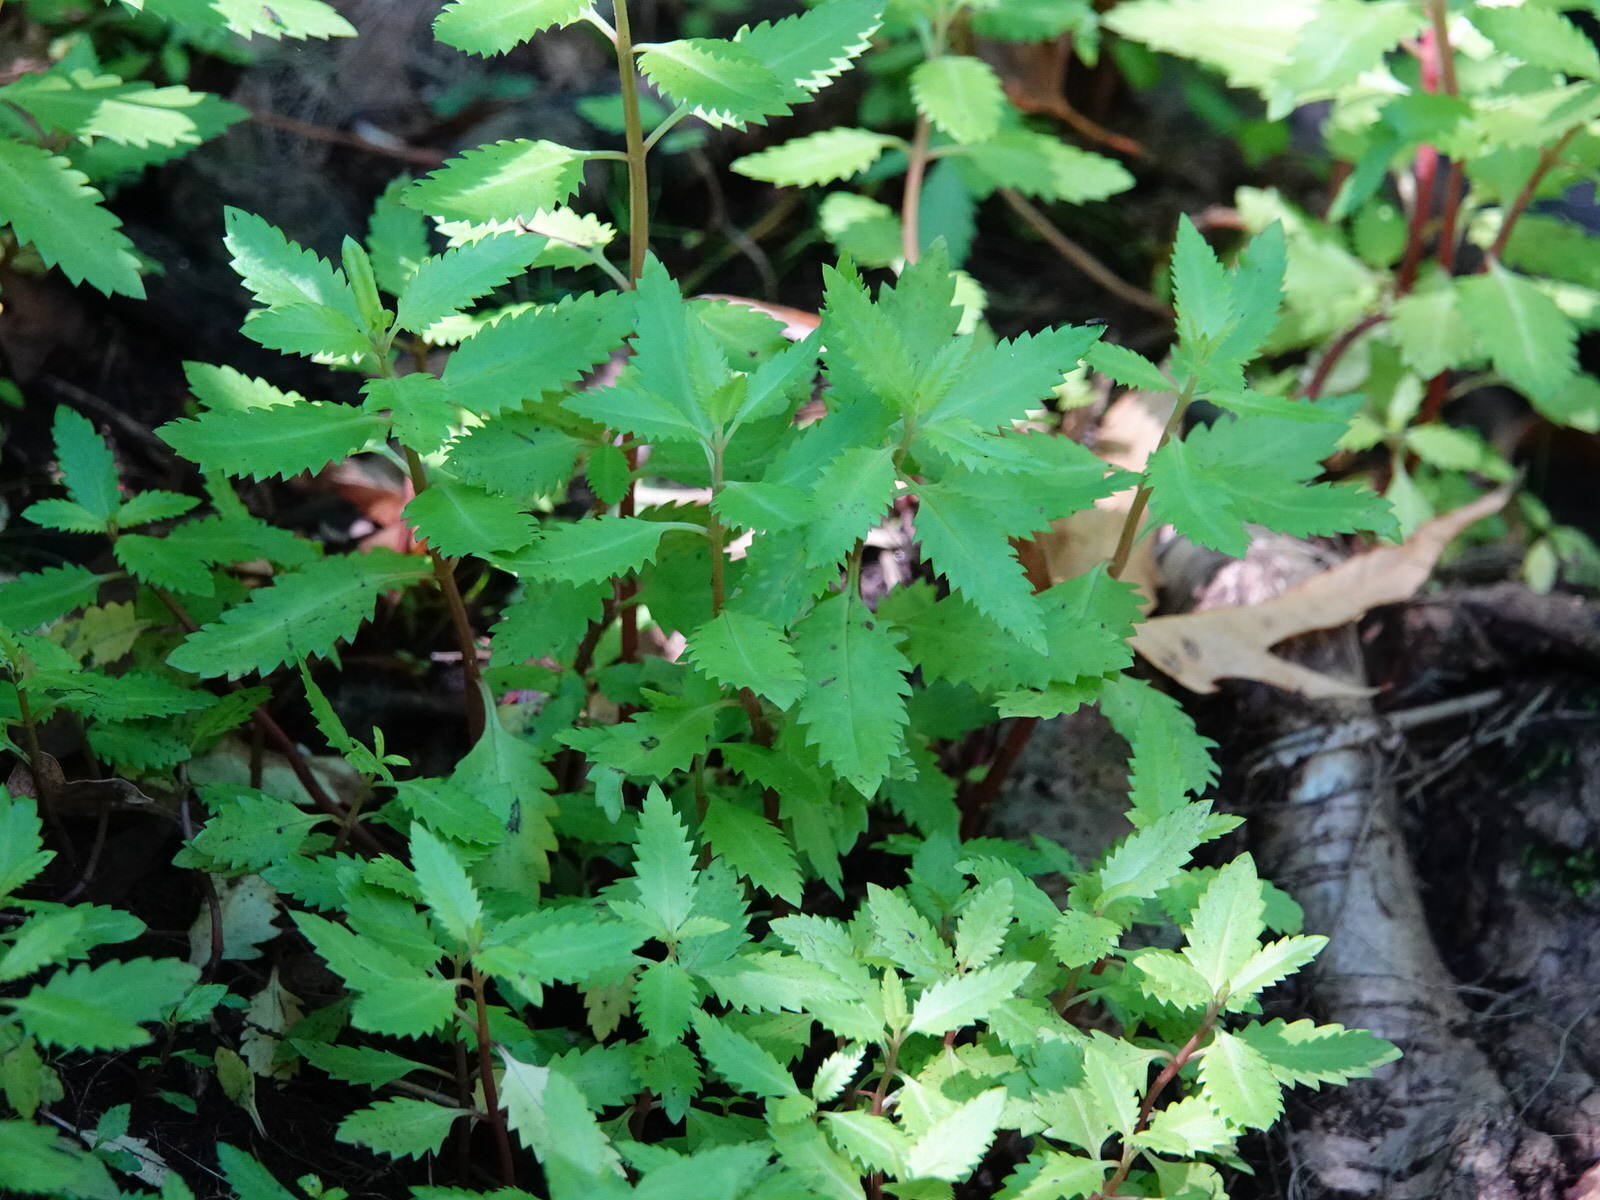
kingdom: Plantae
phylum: Tracheophyta
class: Magnoliopsida
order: Saxifragales
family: Haloragaceae
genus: Haloragis
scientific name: Haloragis erecta
